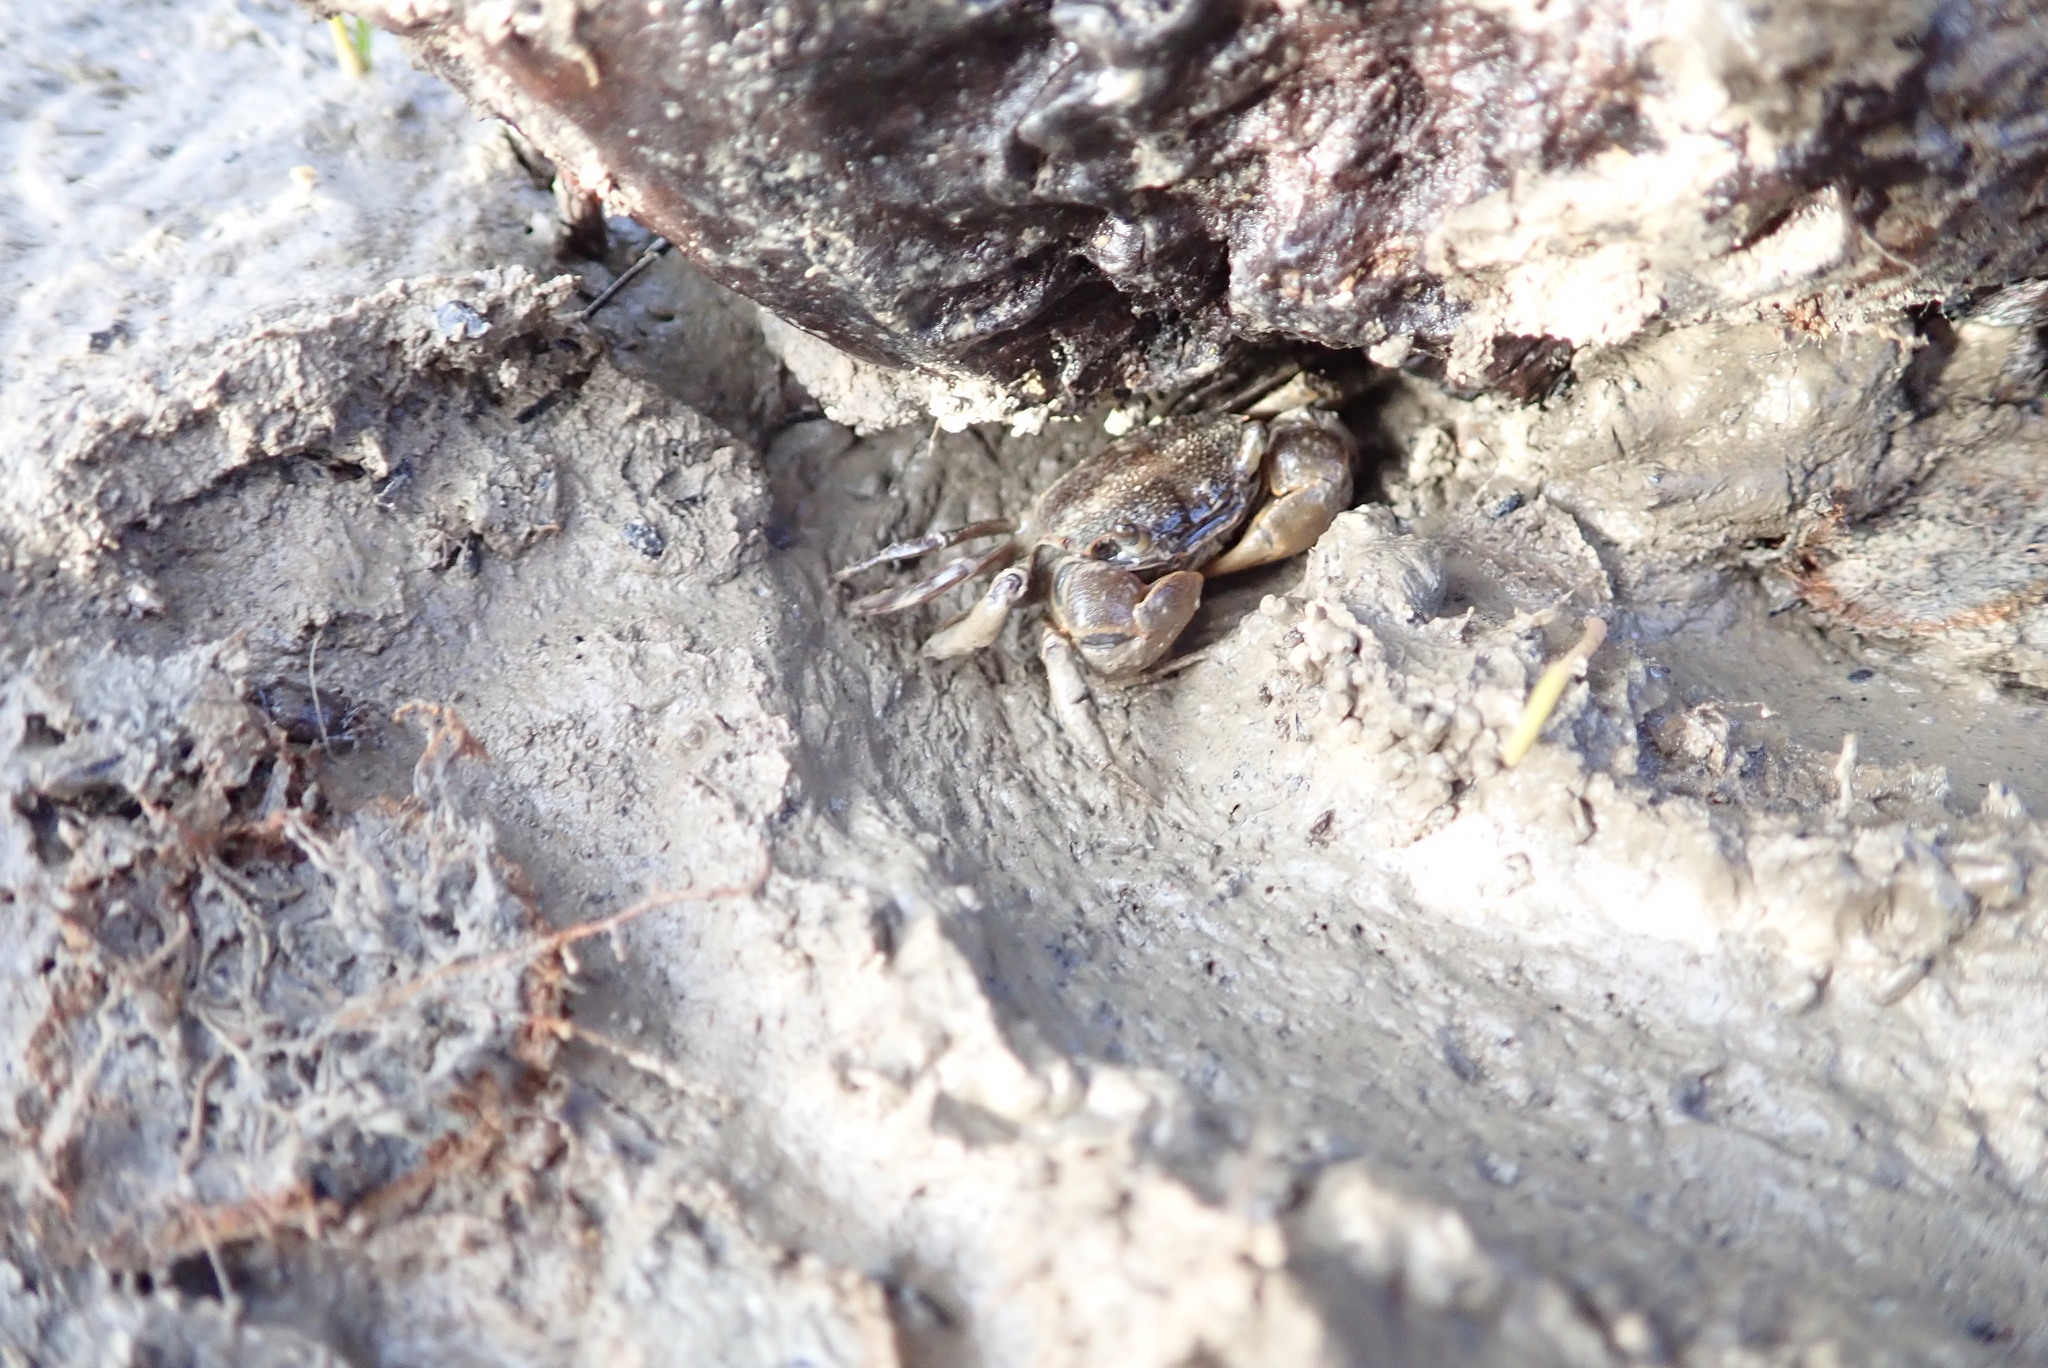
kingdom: Animalia
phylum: Arthropoda
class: Malacostraca
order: Decapoda
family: Varunidae
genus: Austrohelice
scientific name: Austrohelice crassa
